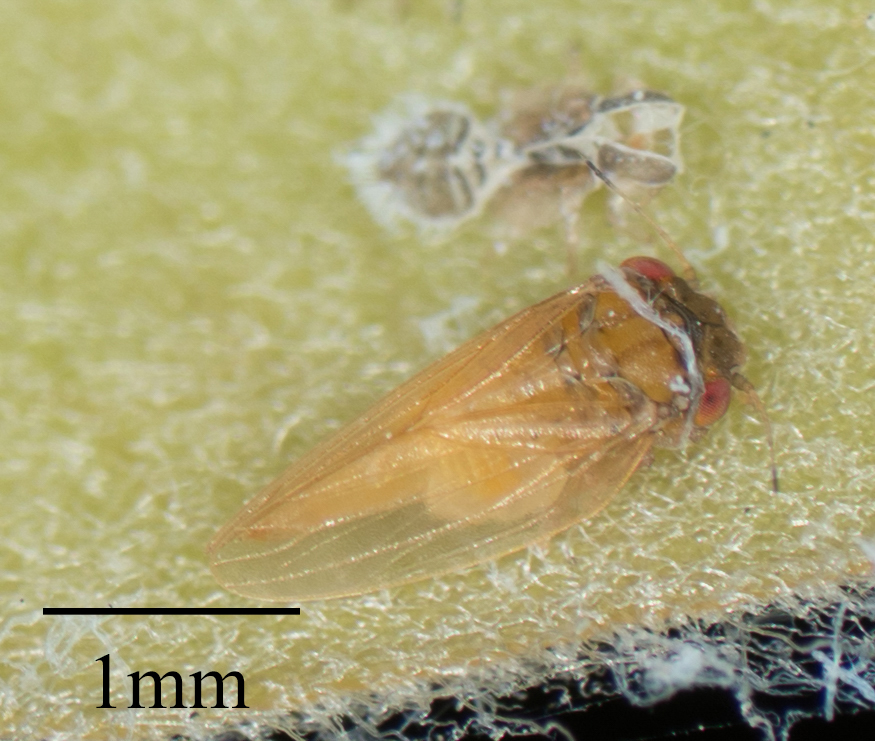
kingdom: Animalia
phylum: Arthropoda
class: Insecta
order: Hemiptera
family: Aphalaridae
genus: Ctenarytaina
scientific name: Ctenarytaina longicauda
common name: Tristania psyllid
